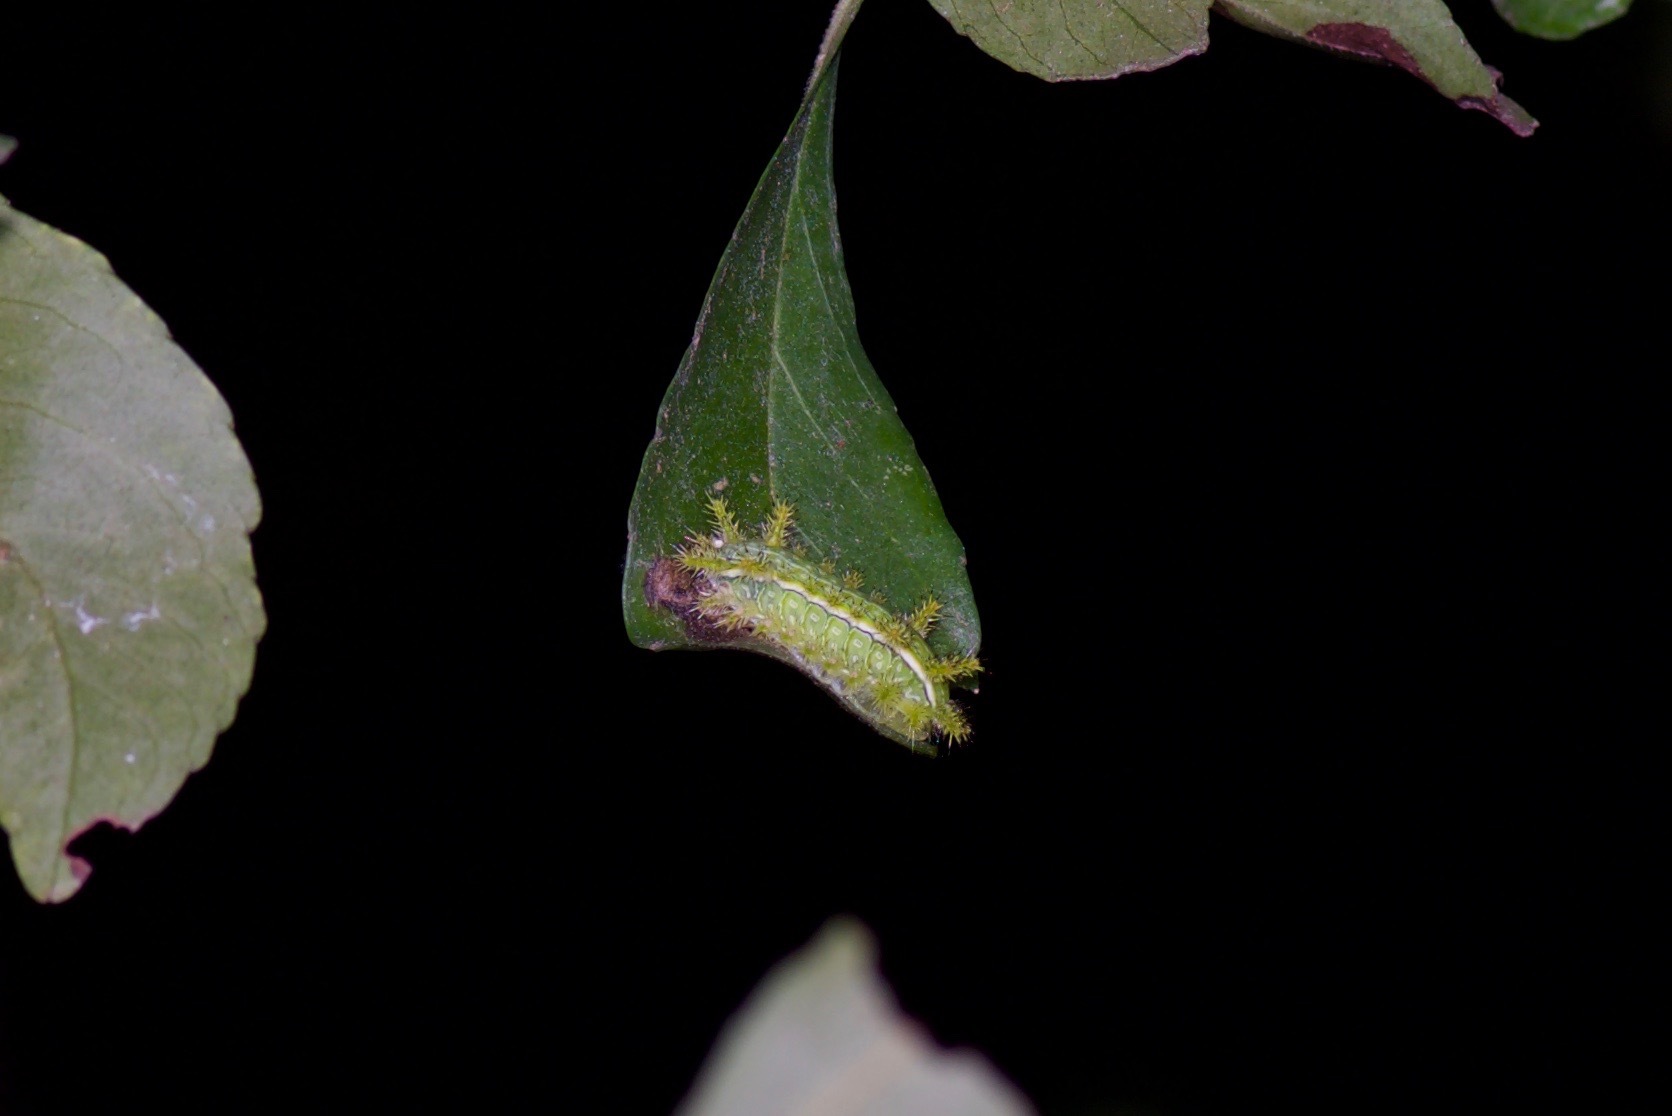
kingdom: Animalia
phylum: Arthropoda
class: Insecta
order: Lepidoptera
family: Limacodidae
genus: Euclea
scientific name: Euclea incisa
